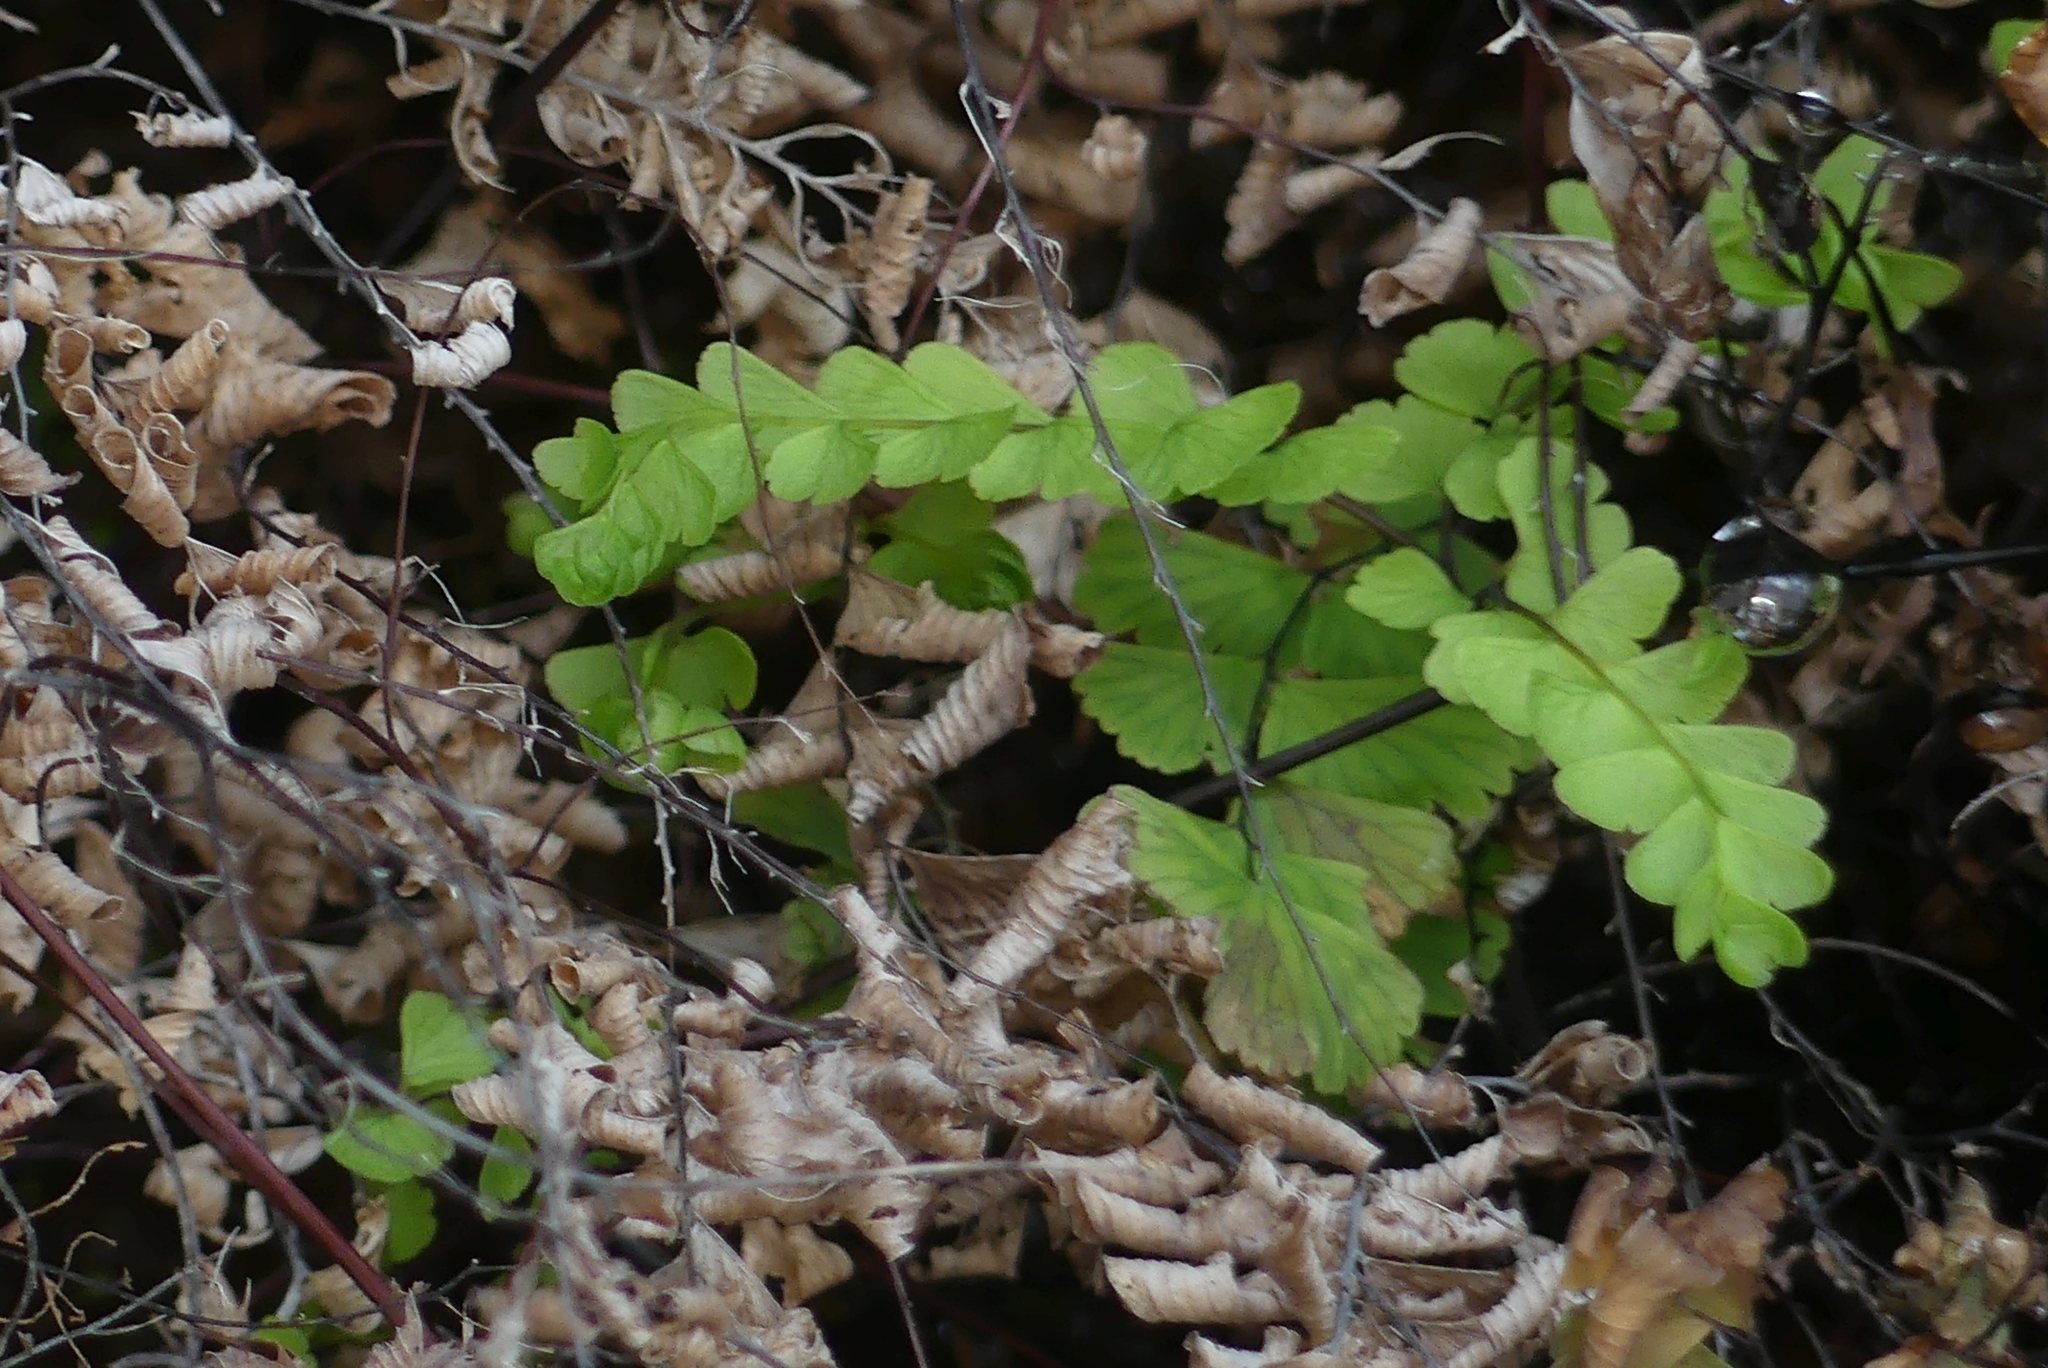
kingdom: Plantae
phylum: Tracheophyta
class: Polypodiopsida
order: Polypodiales
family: Pteridaceae
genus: Adiantum
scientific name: Adiantum aleuticum
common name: Aleutian maidenhair fern
